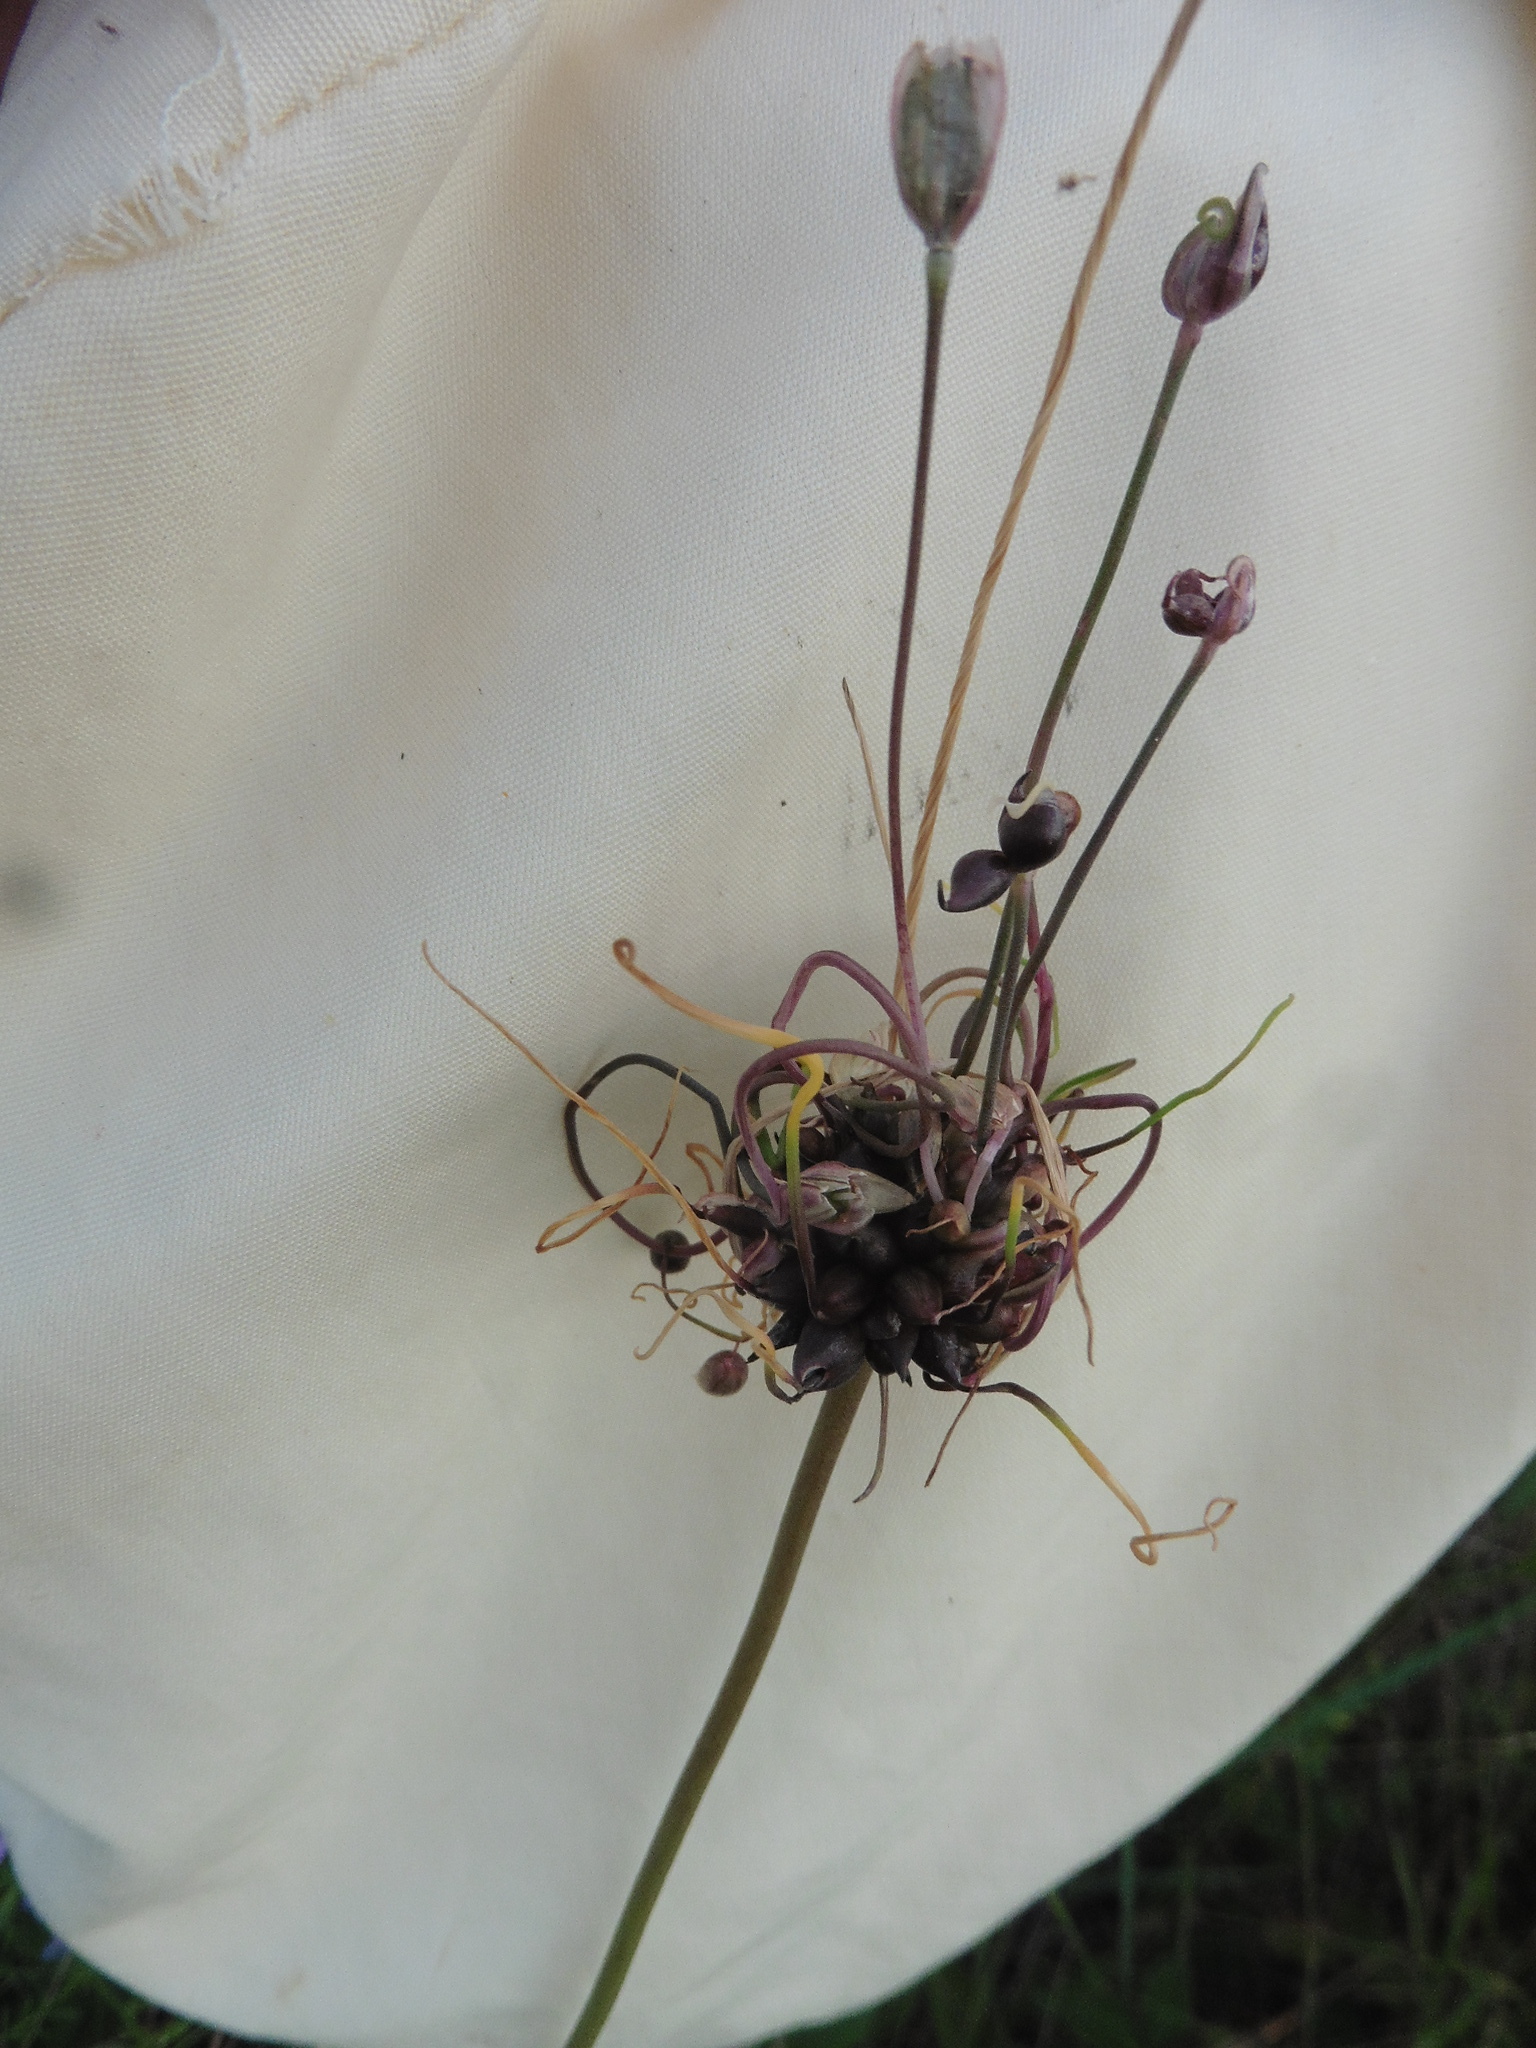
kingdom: Plantae
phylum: Tracheophyta
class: Liliopsida
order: Asparagales
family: Amaryllidaceae
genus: Allium
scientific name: Allium oleraceum
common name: Field garlic
